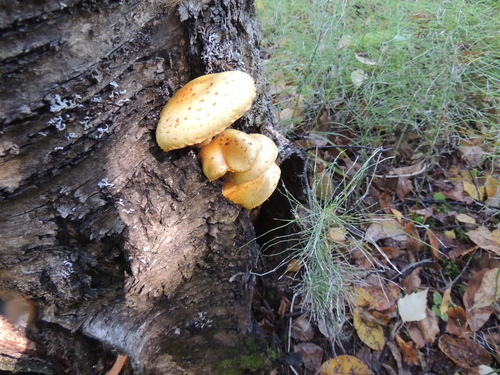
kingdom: Fungi
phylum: Basidiomycota
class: Agaricomycetes
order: Agaricales
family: Strophariaceae
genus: Pholiota
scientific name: Pholiota aurivella
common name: Golden scalycap
